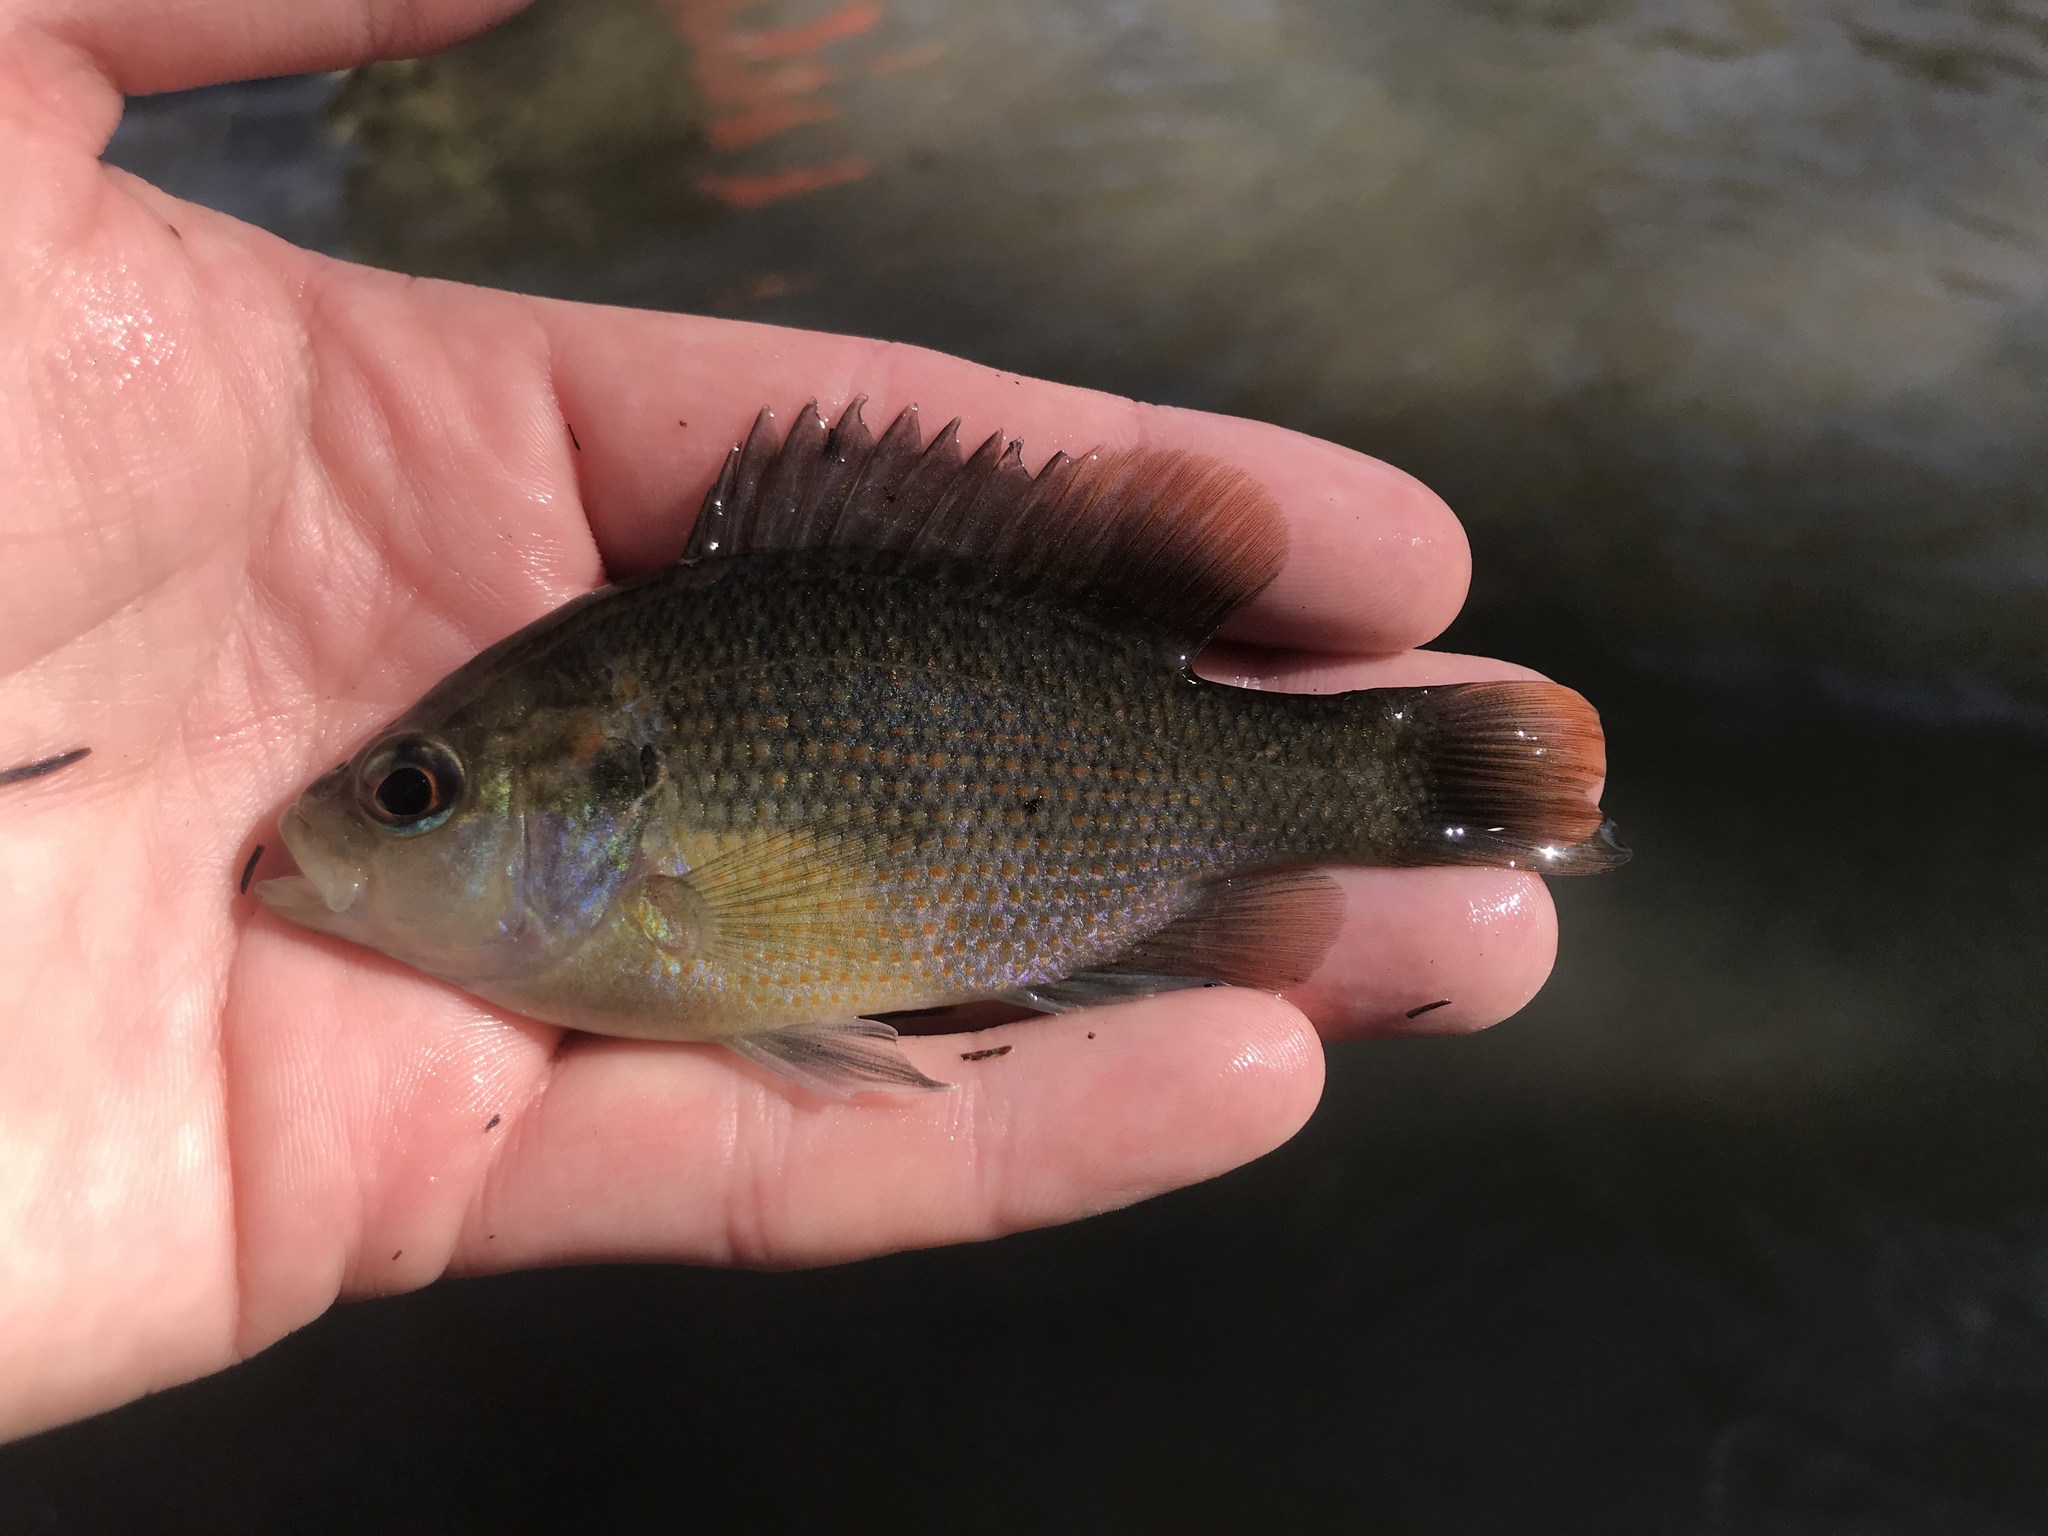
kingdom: Animalia
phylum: Chordata
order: Perciformes
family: Centrarchidae
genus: Lepomis
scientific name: Lepomis miniatus
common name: Redspotted sunfish
